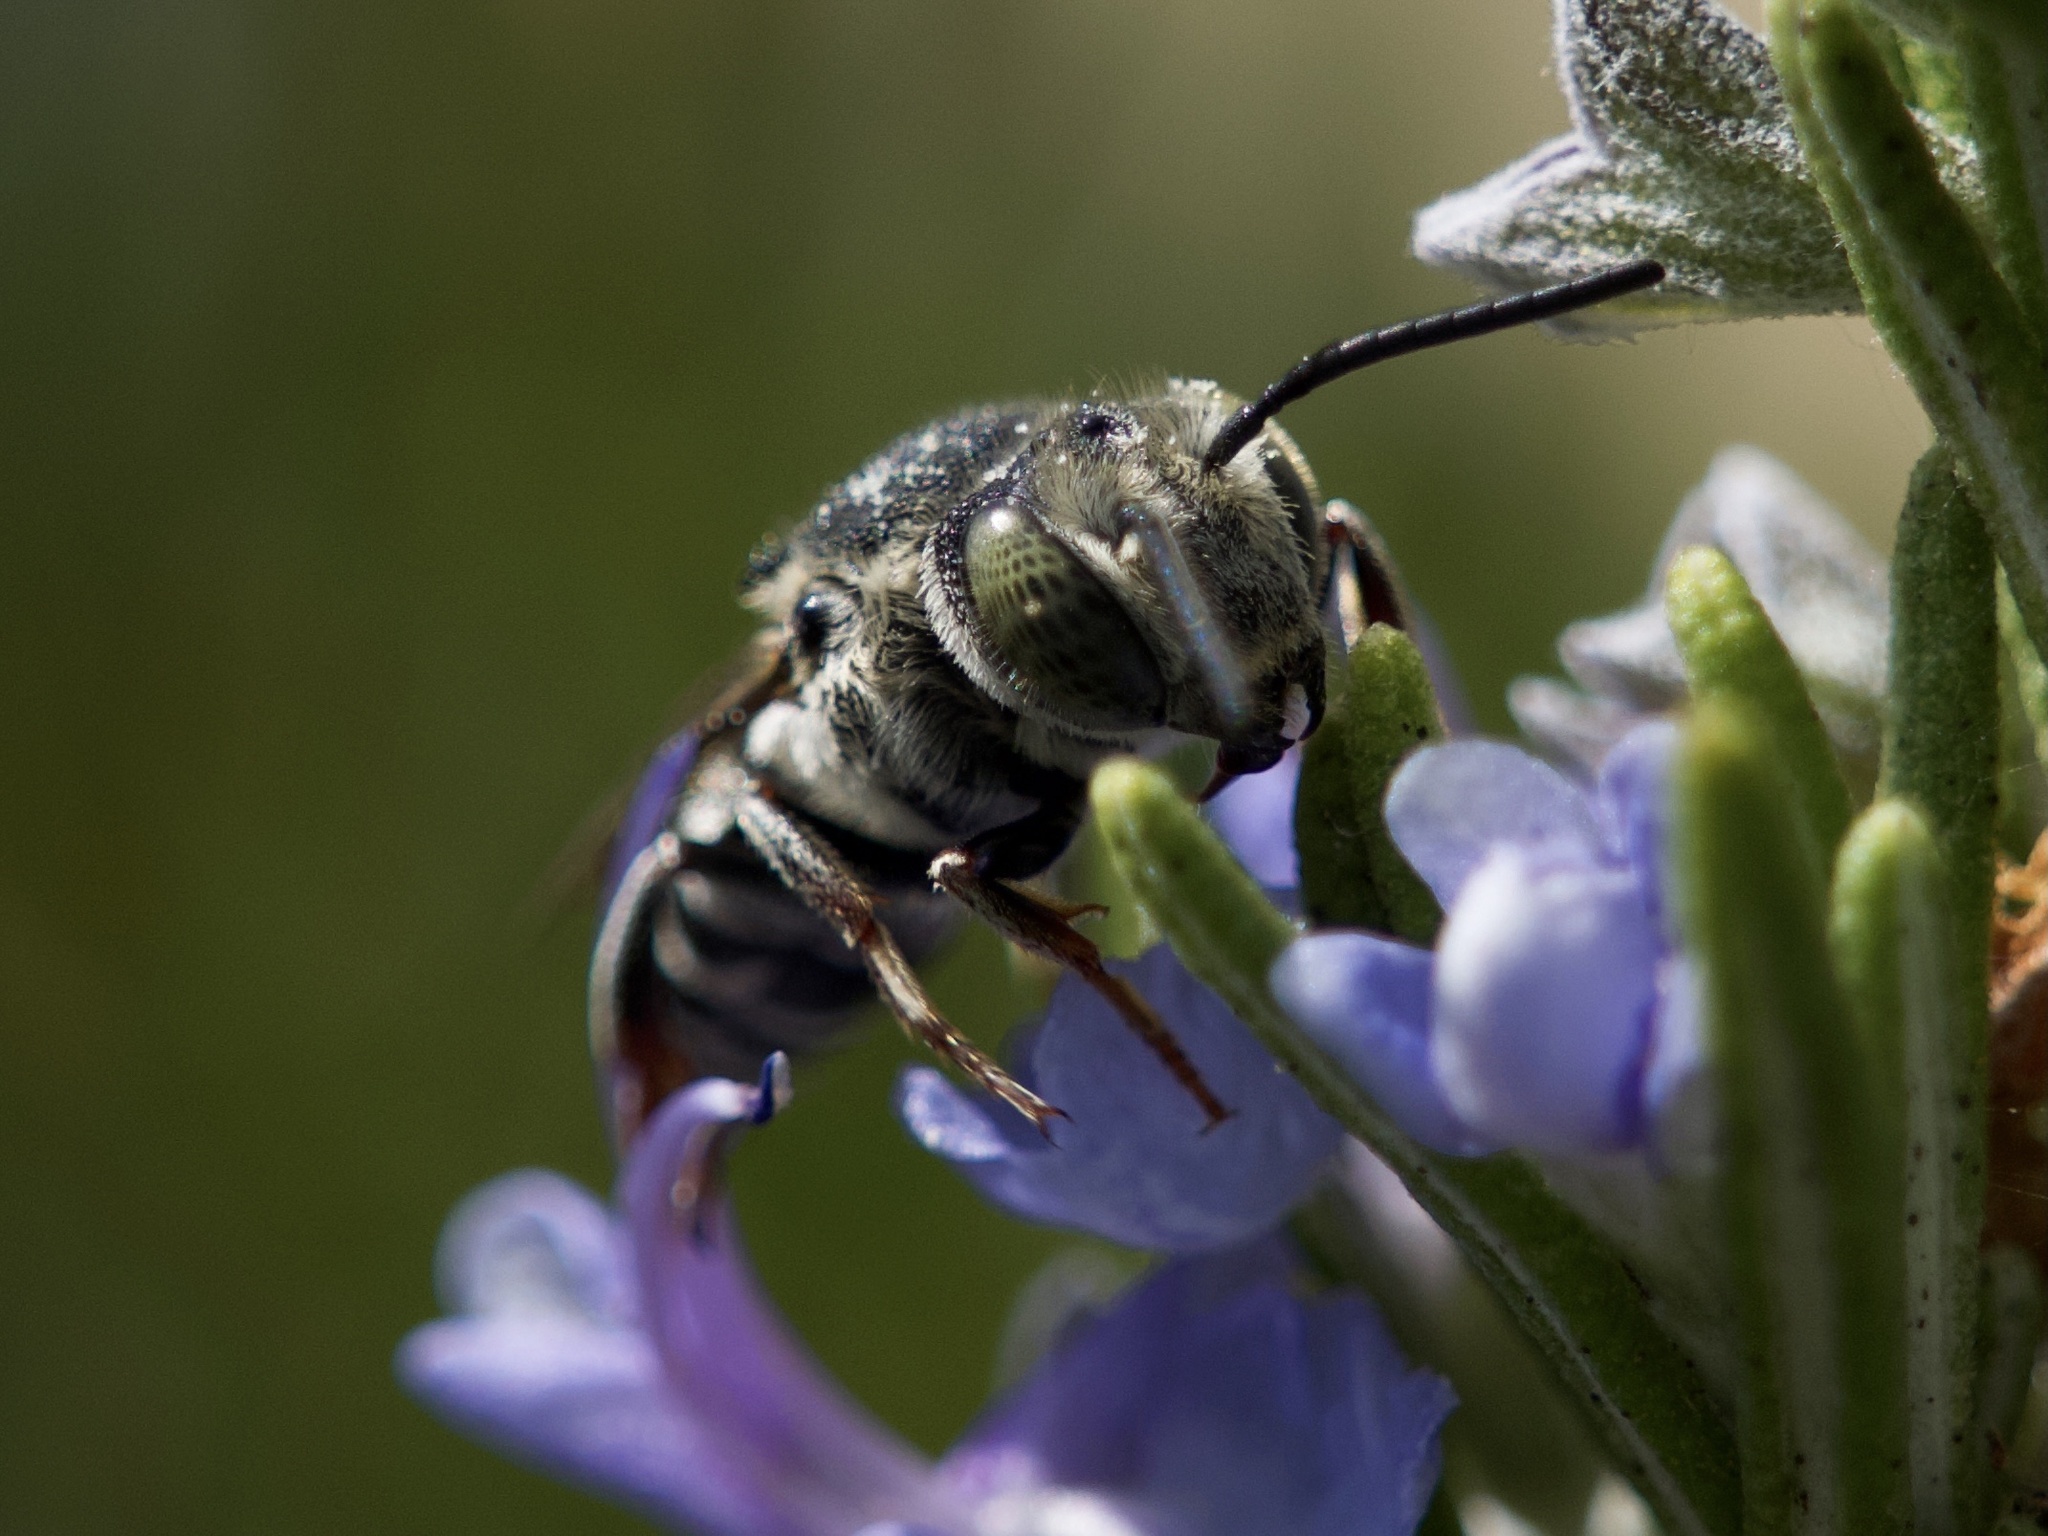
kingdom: Animalia
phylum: Arthropoda
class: Insecta
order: Hymenoptera
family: Megachilidae
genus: Coelioxys
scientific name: Coelioxys rufitarsis
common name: Red-footed sharptail
